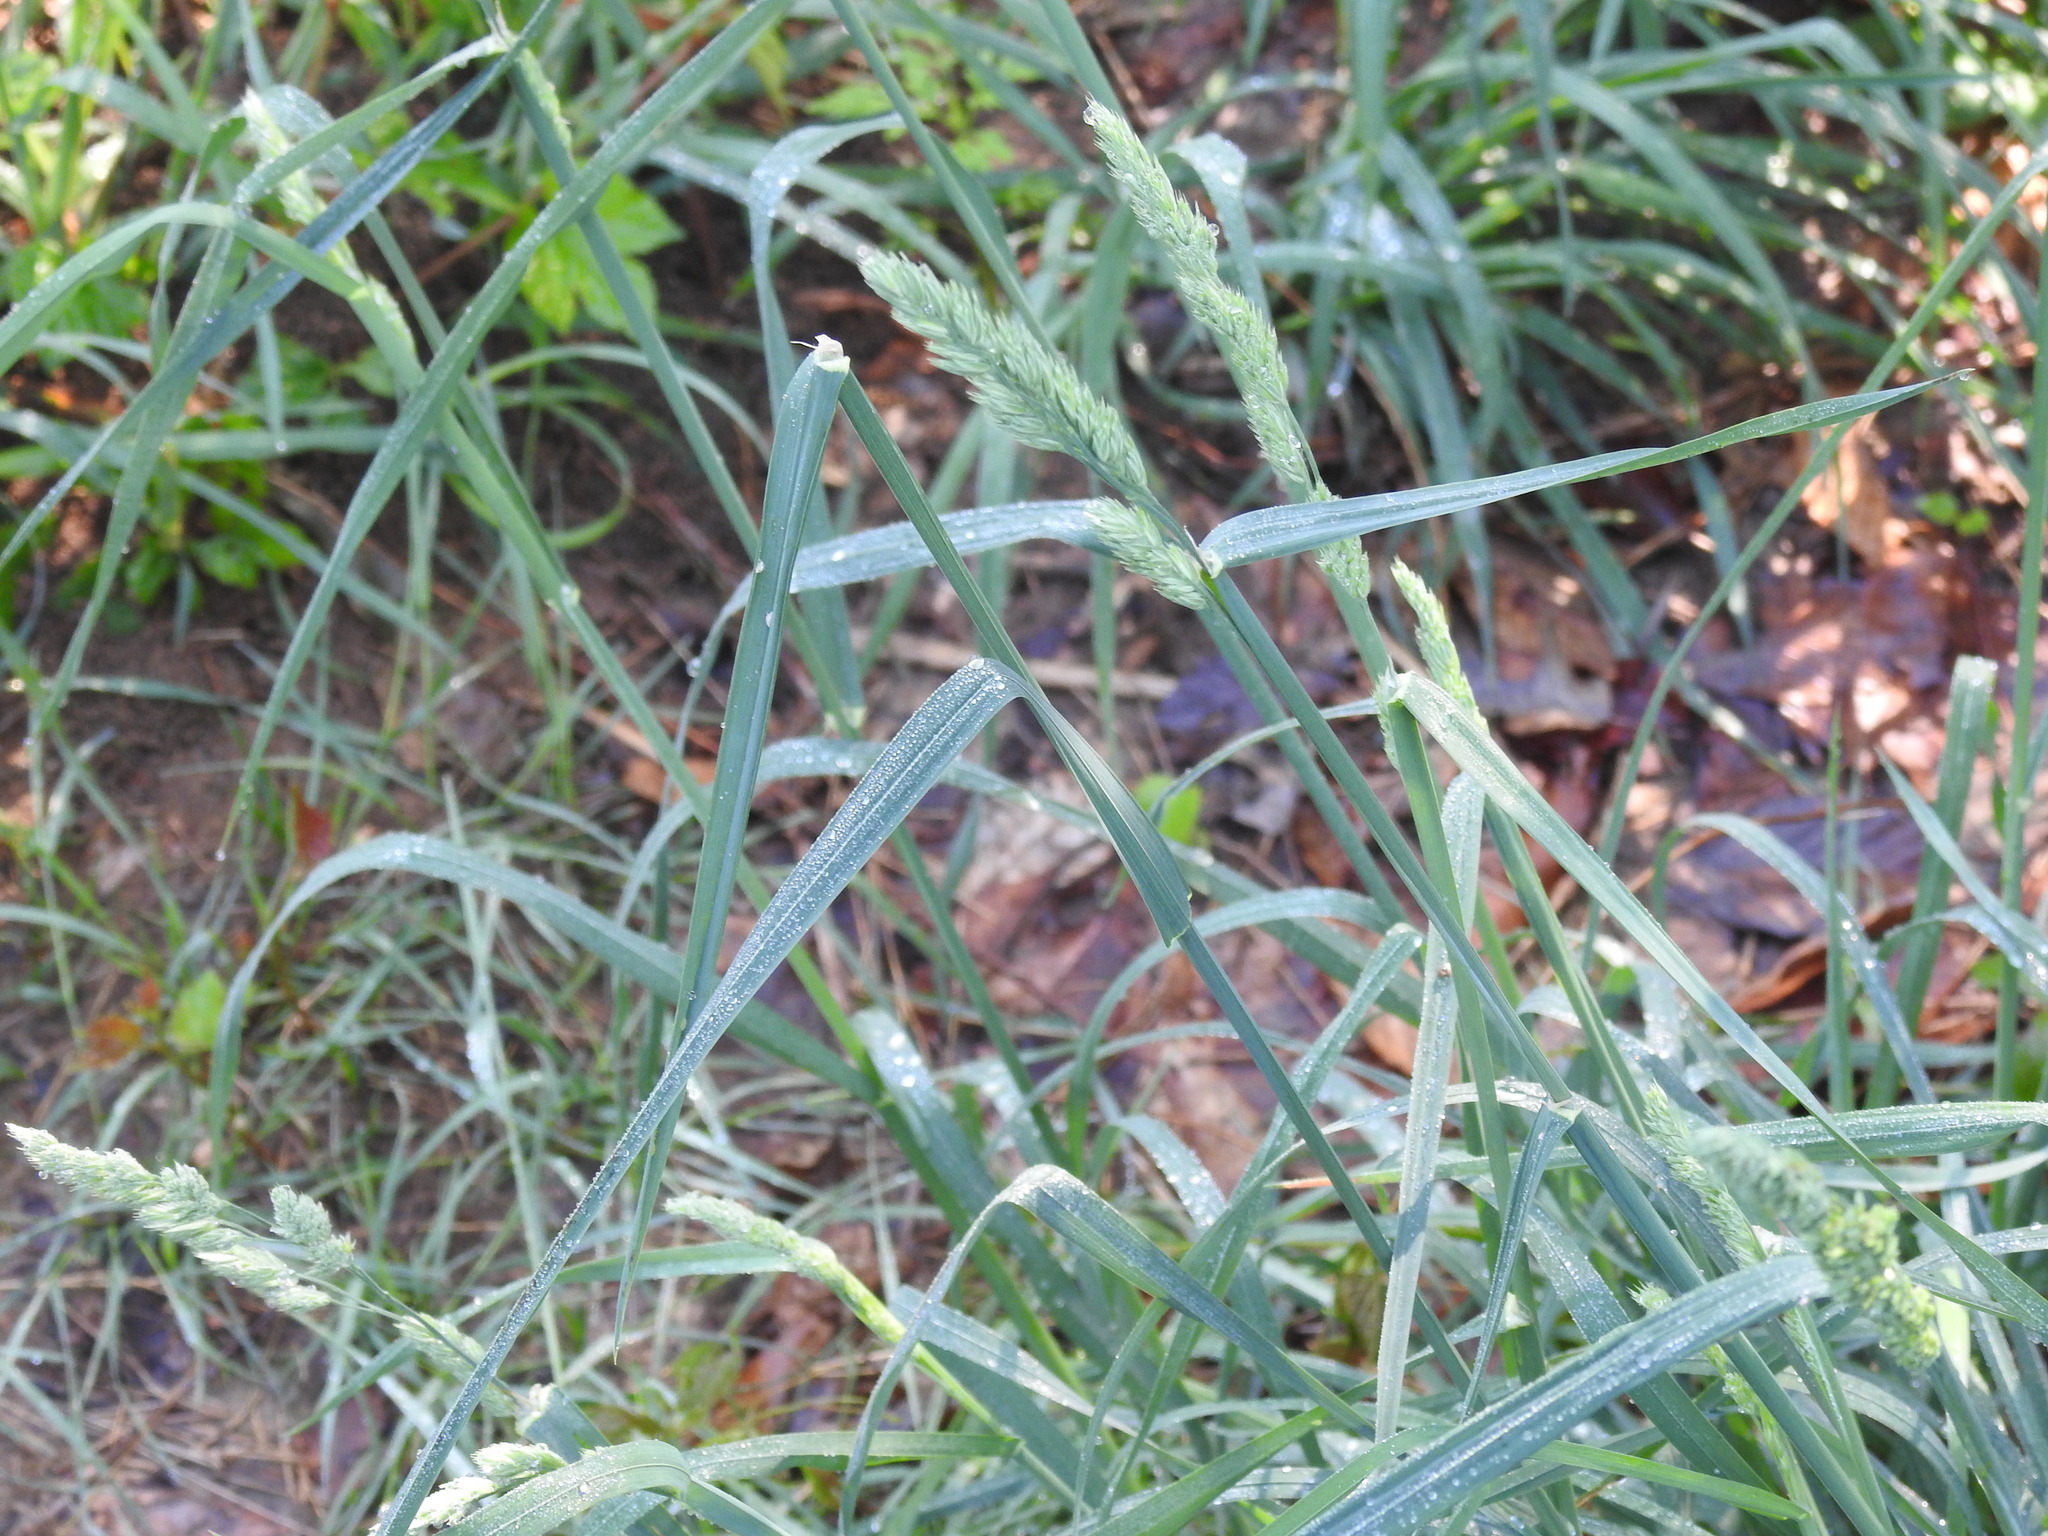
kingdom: Plantae
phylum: Tracheophyta
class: Liliopsida
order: Poales
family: Poaceae
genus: Dactylis
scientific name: Dactylis glomerata
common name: Orchardgrass
